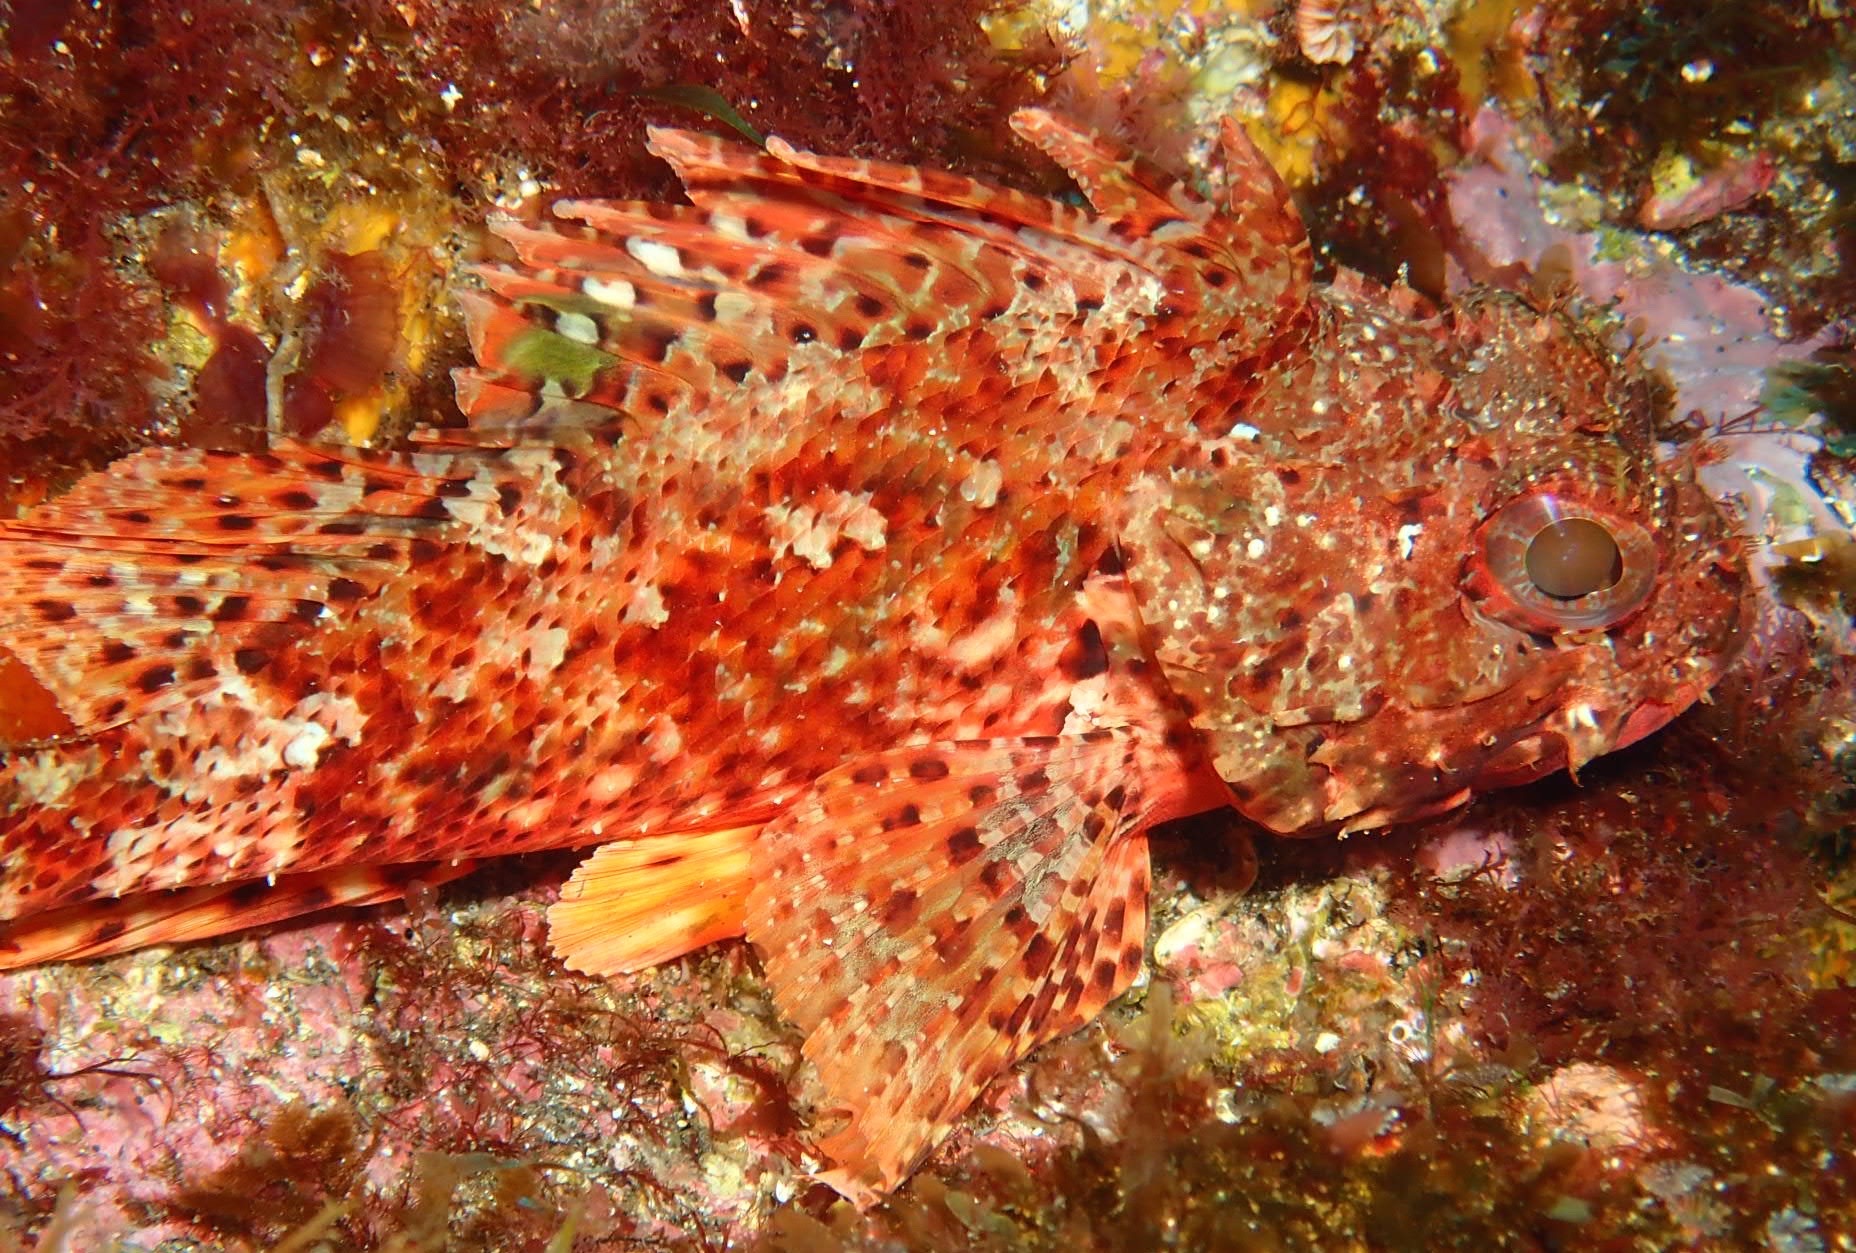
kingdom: Animalia
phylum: Chordata
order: Scorpaeniformes
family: Scorpaenidae
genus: Scorpaena
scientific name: Scorpaena notata
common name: Small red scorpionfish
